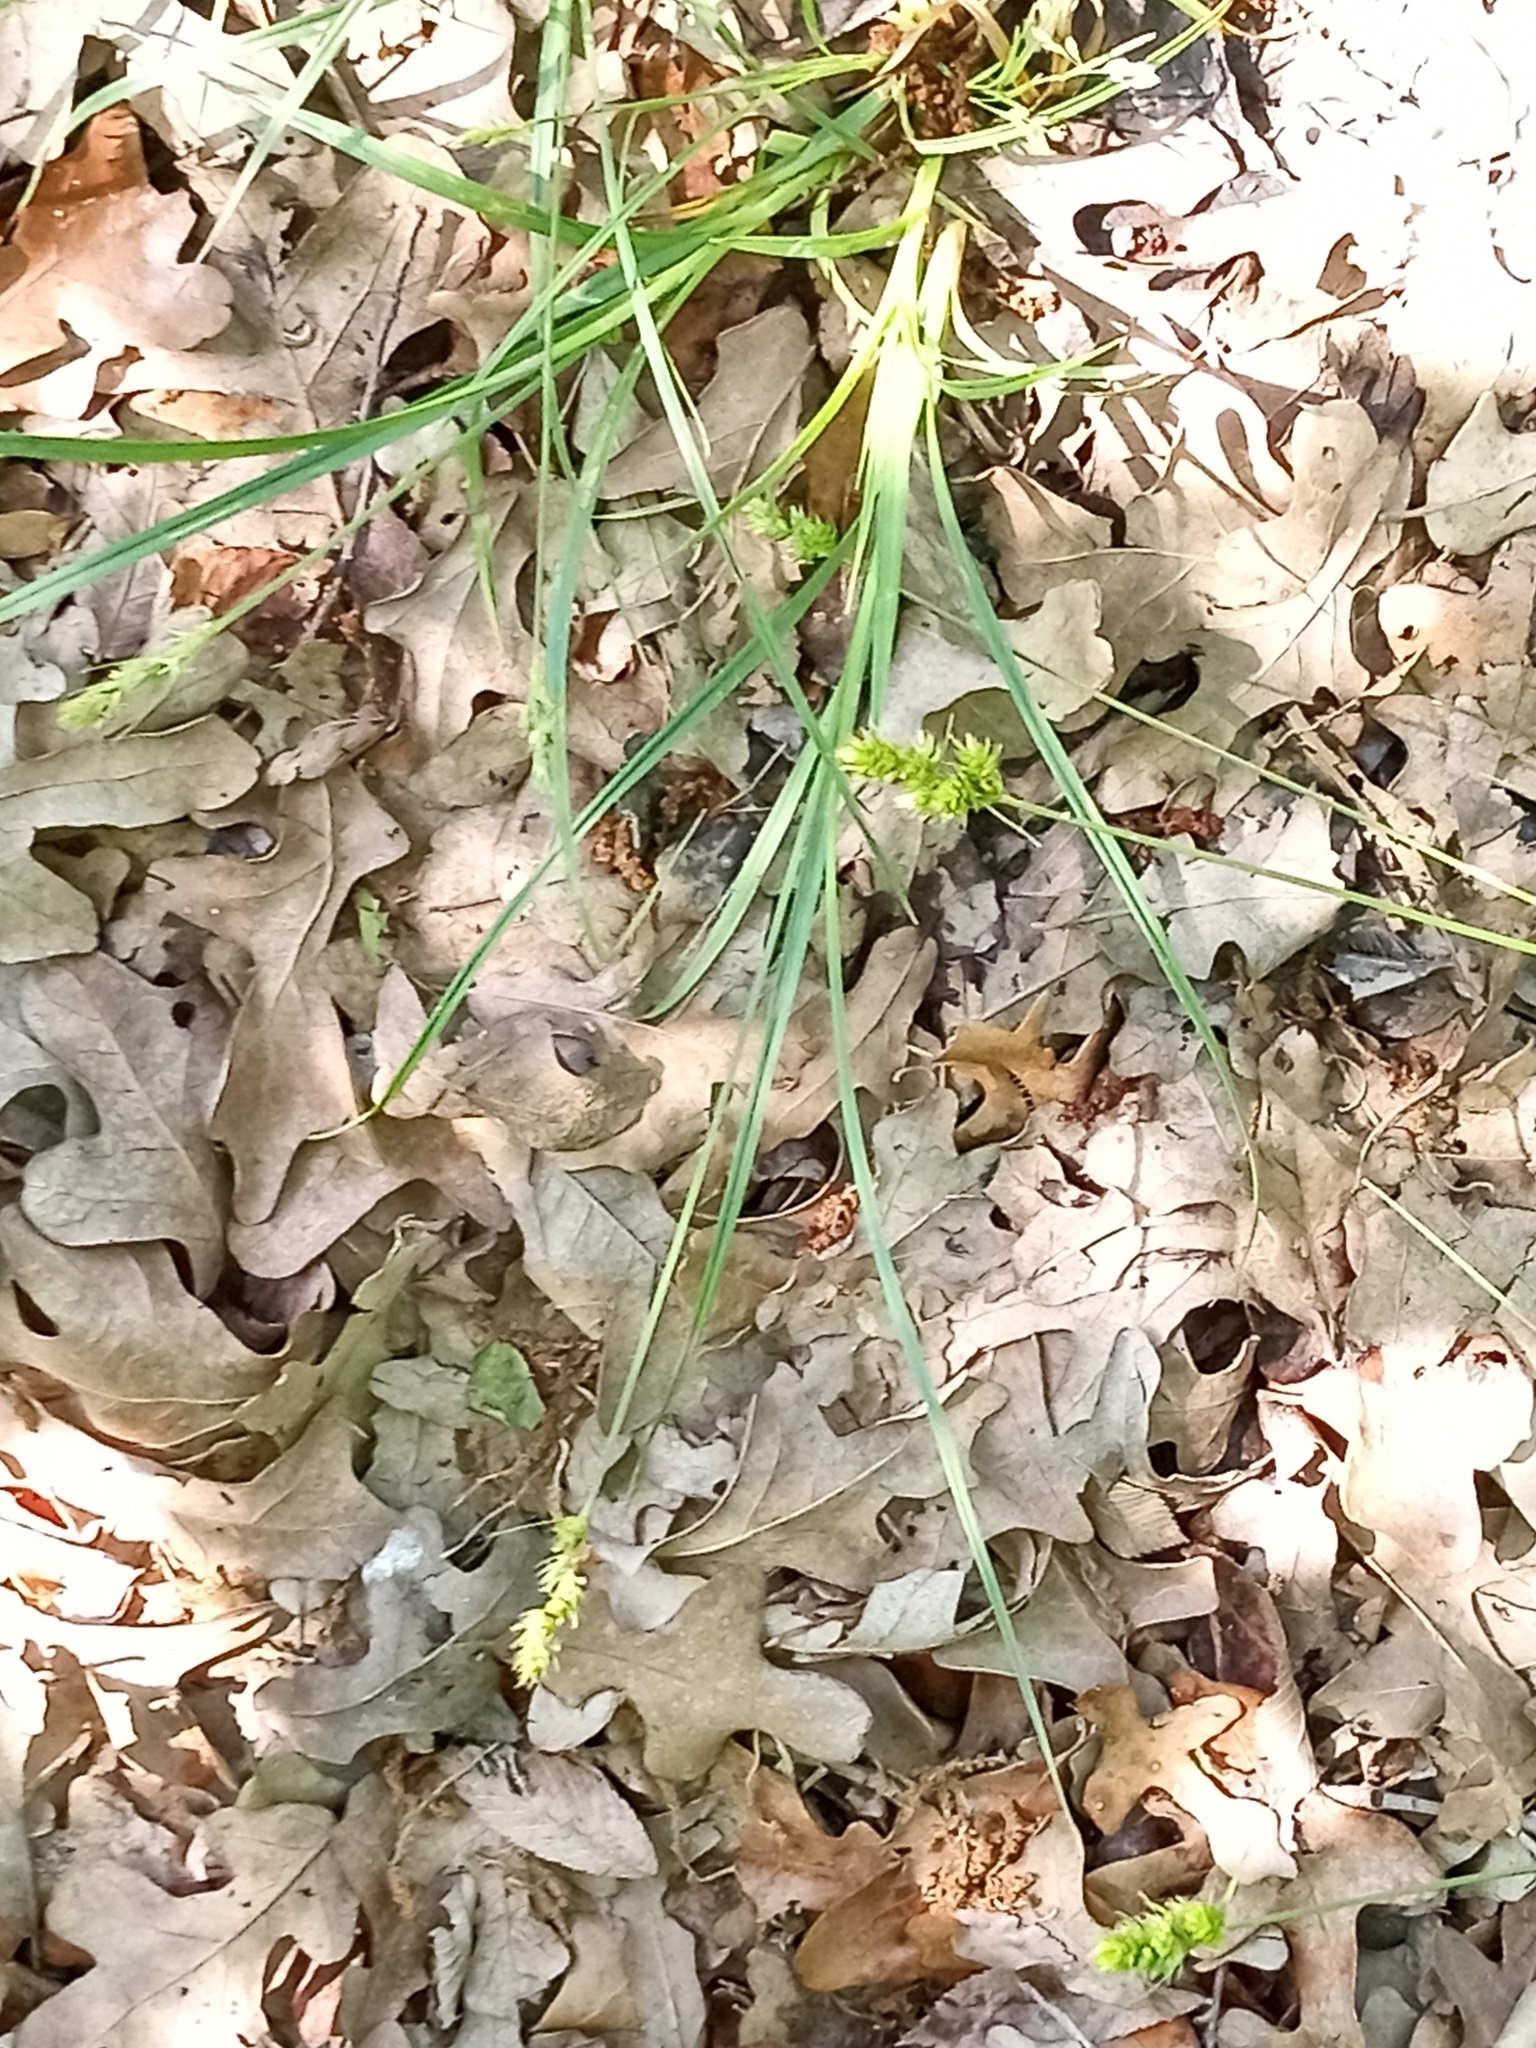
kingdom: Plantae
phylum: Tracheophyta
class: Liliopsida
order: Poales
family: Cyperaceae
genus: Carex
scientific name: Carex cephalophora
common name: Oval-headed sedge
